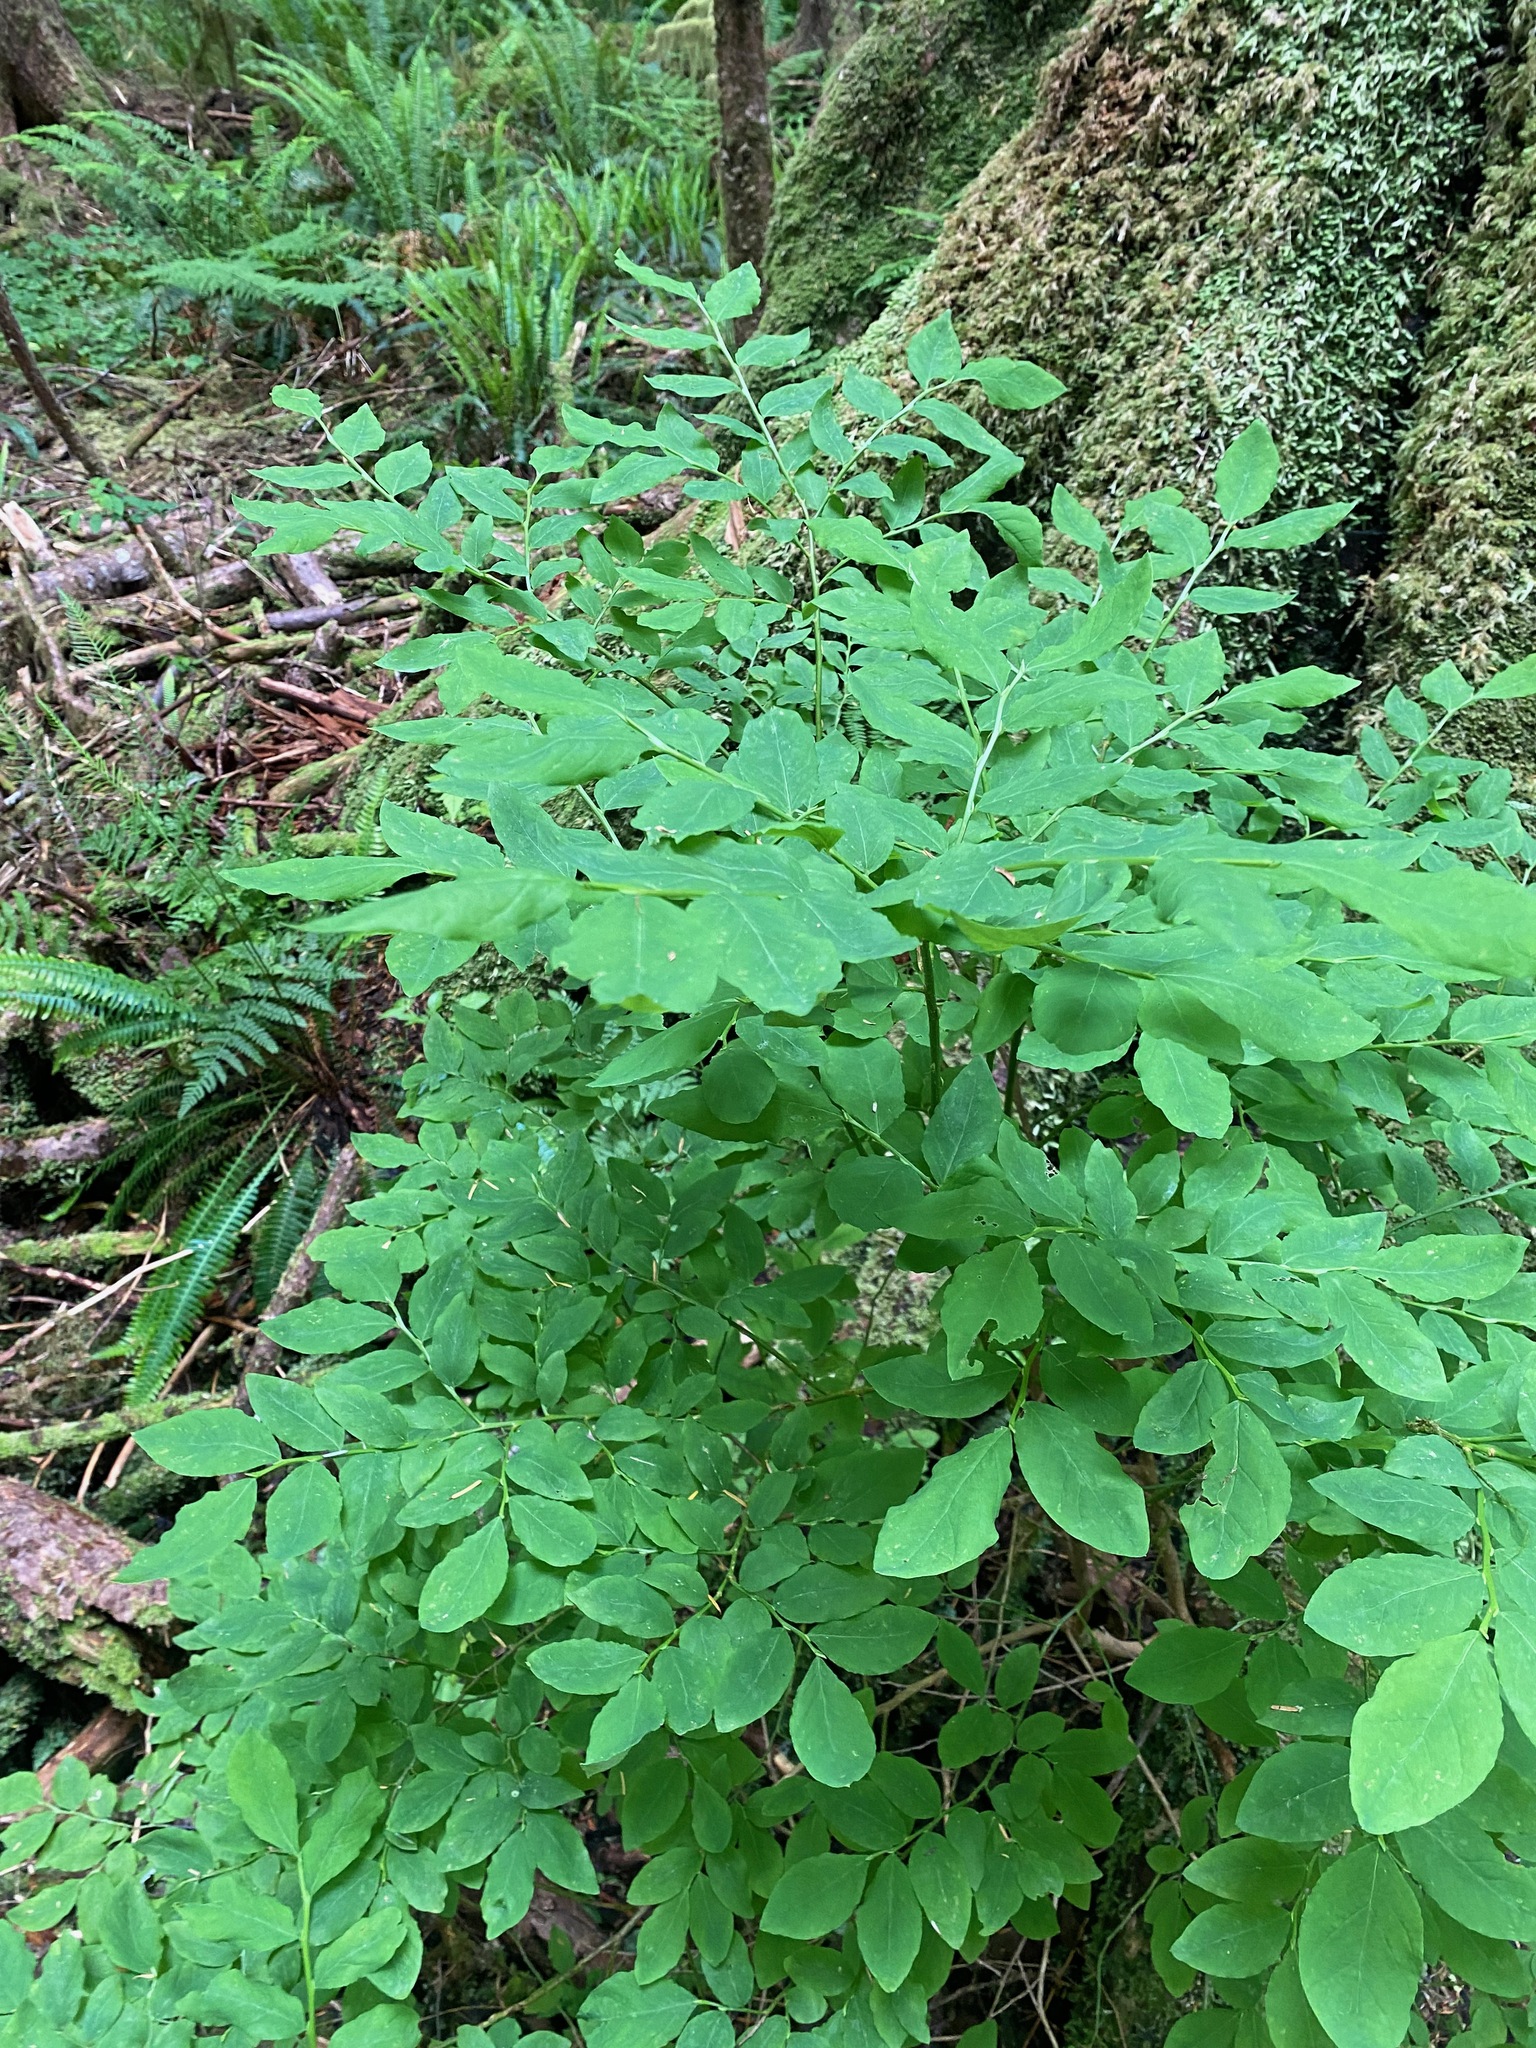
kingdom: Plantae
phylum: Tracheophyta
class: Magnoliopsida
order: Ericales
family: Ericaceae
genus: Vaccinium
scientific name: Vaccinium ovalifolium
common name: Early blueberry
